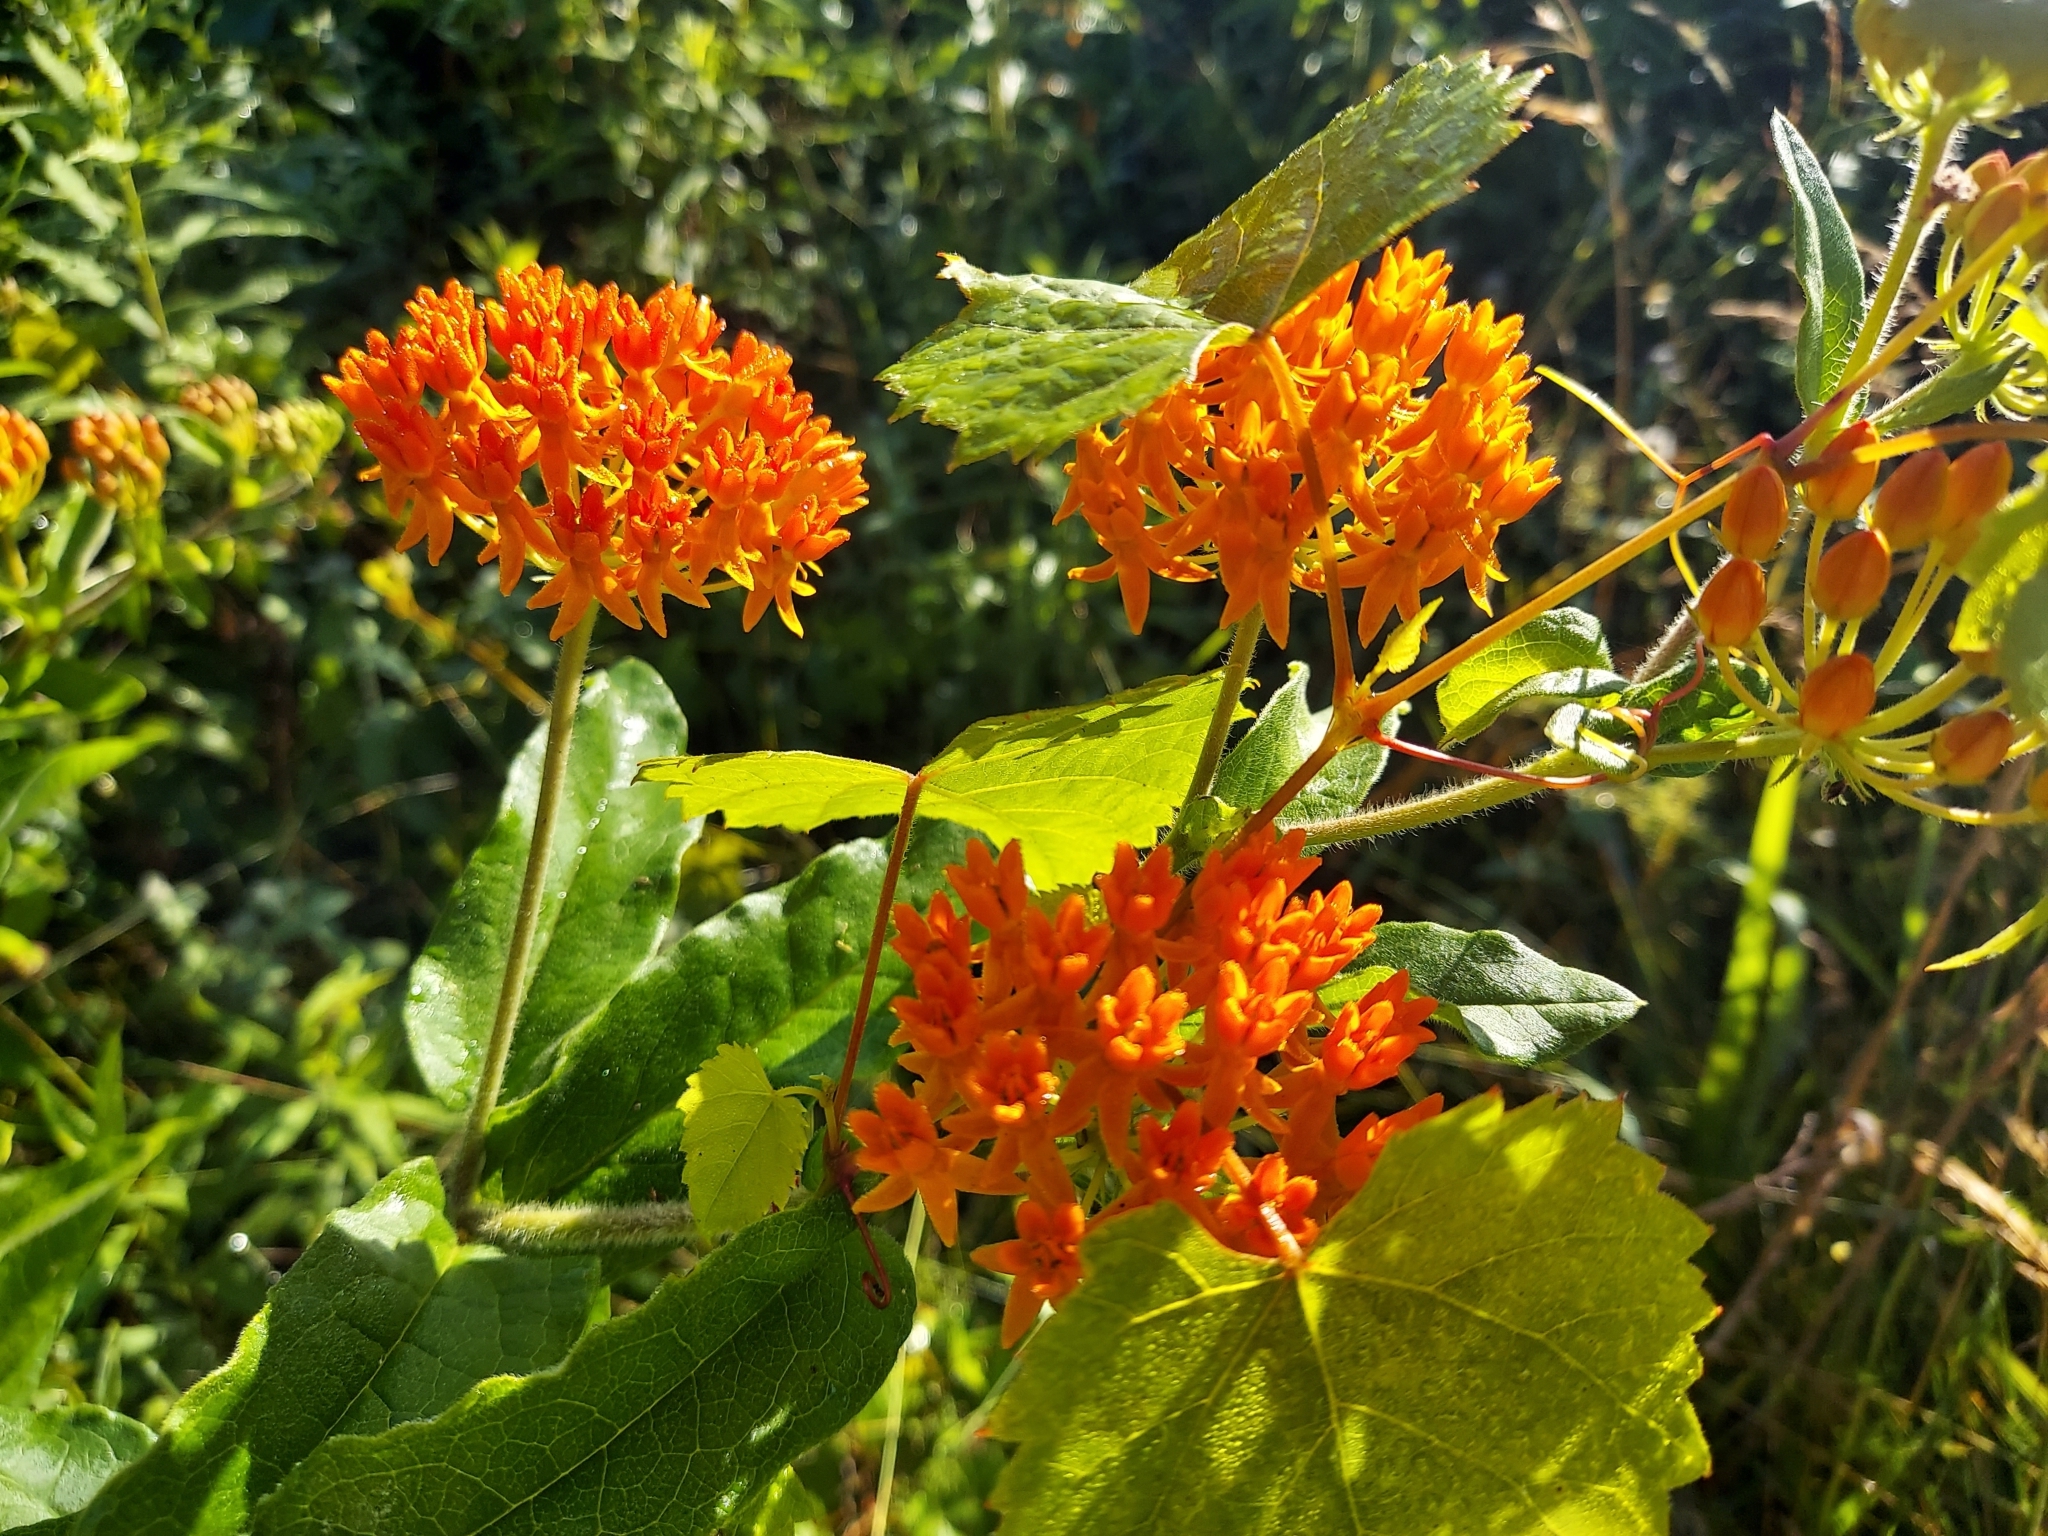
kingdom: Plantae
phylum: Tracheophyta
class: Magnoliopsida
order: Gentianales
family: Apocynaceae
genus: Asclepias
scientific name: Asclepias tuberosa
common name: Butterfly milkweed
